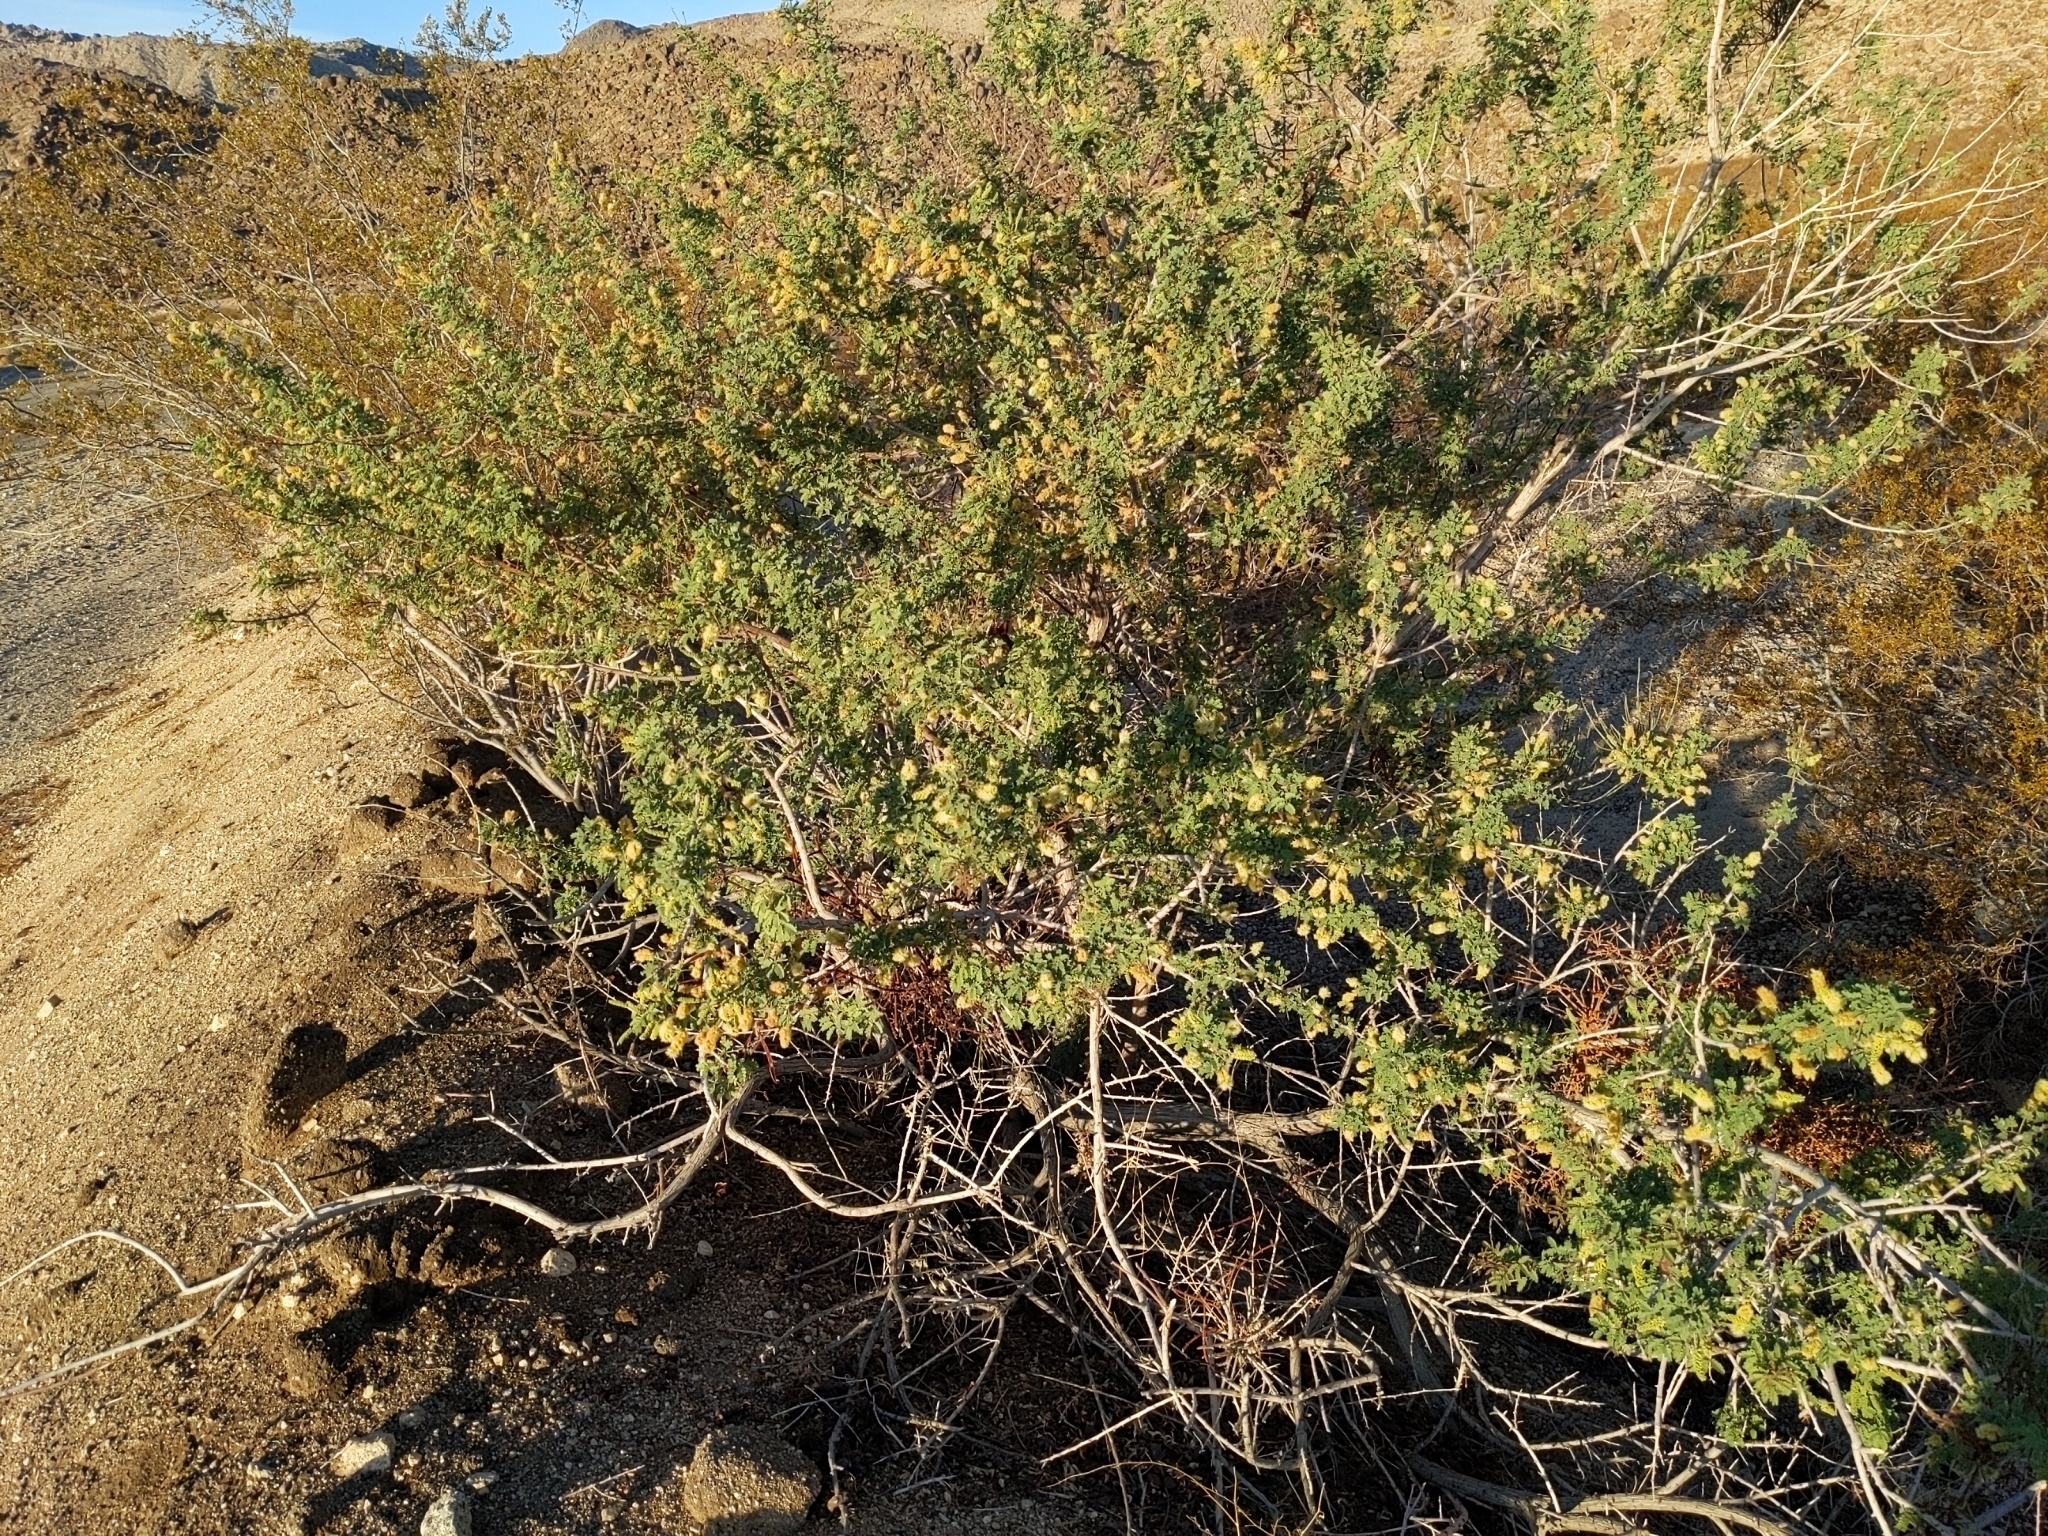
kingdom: Plantae
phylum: Tracheophyta
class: Magnoliopsida
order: Fabales
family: Fabaceae
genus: Senegalia
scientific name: Senegalia greggii
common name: Texas-mimosa
